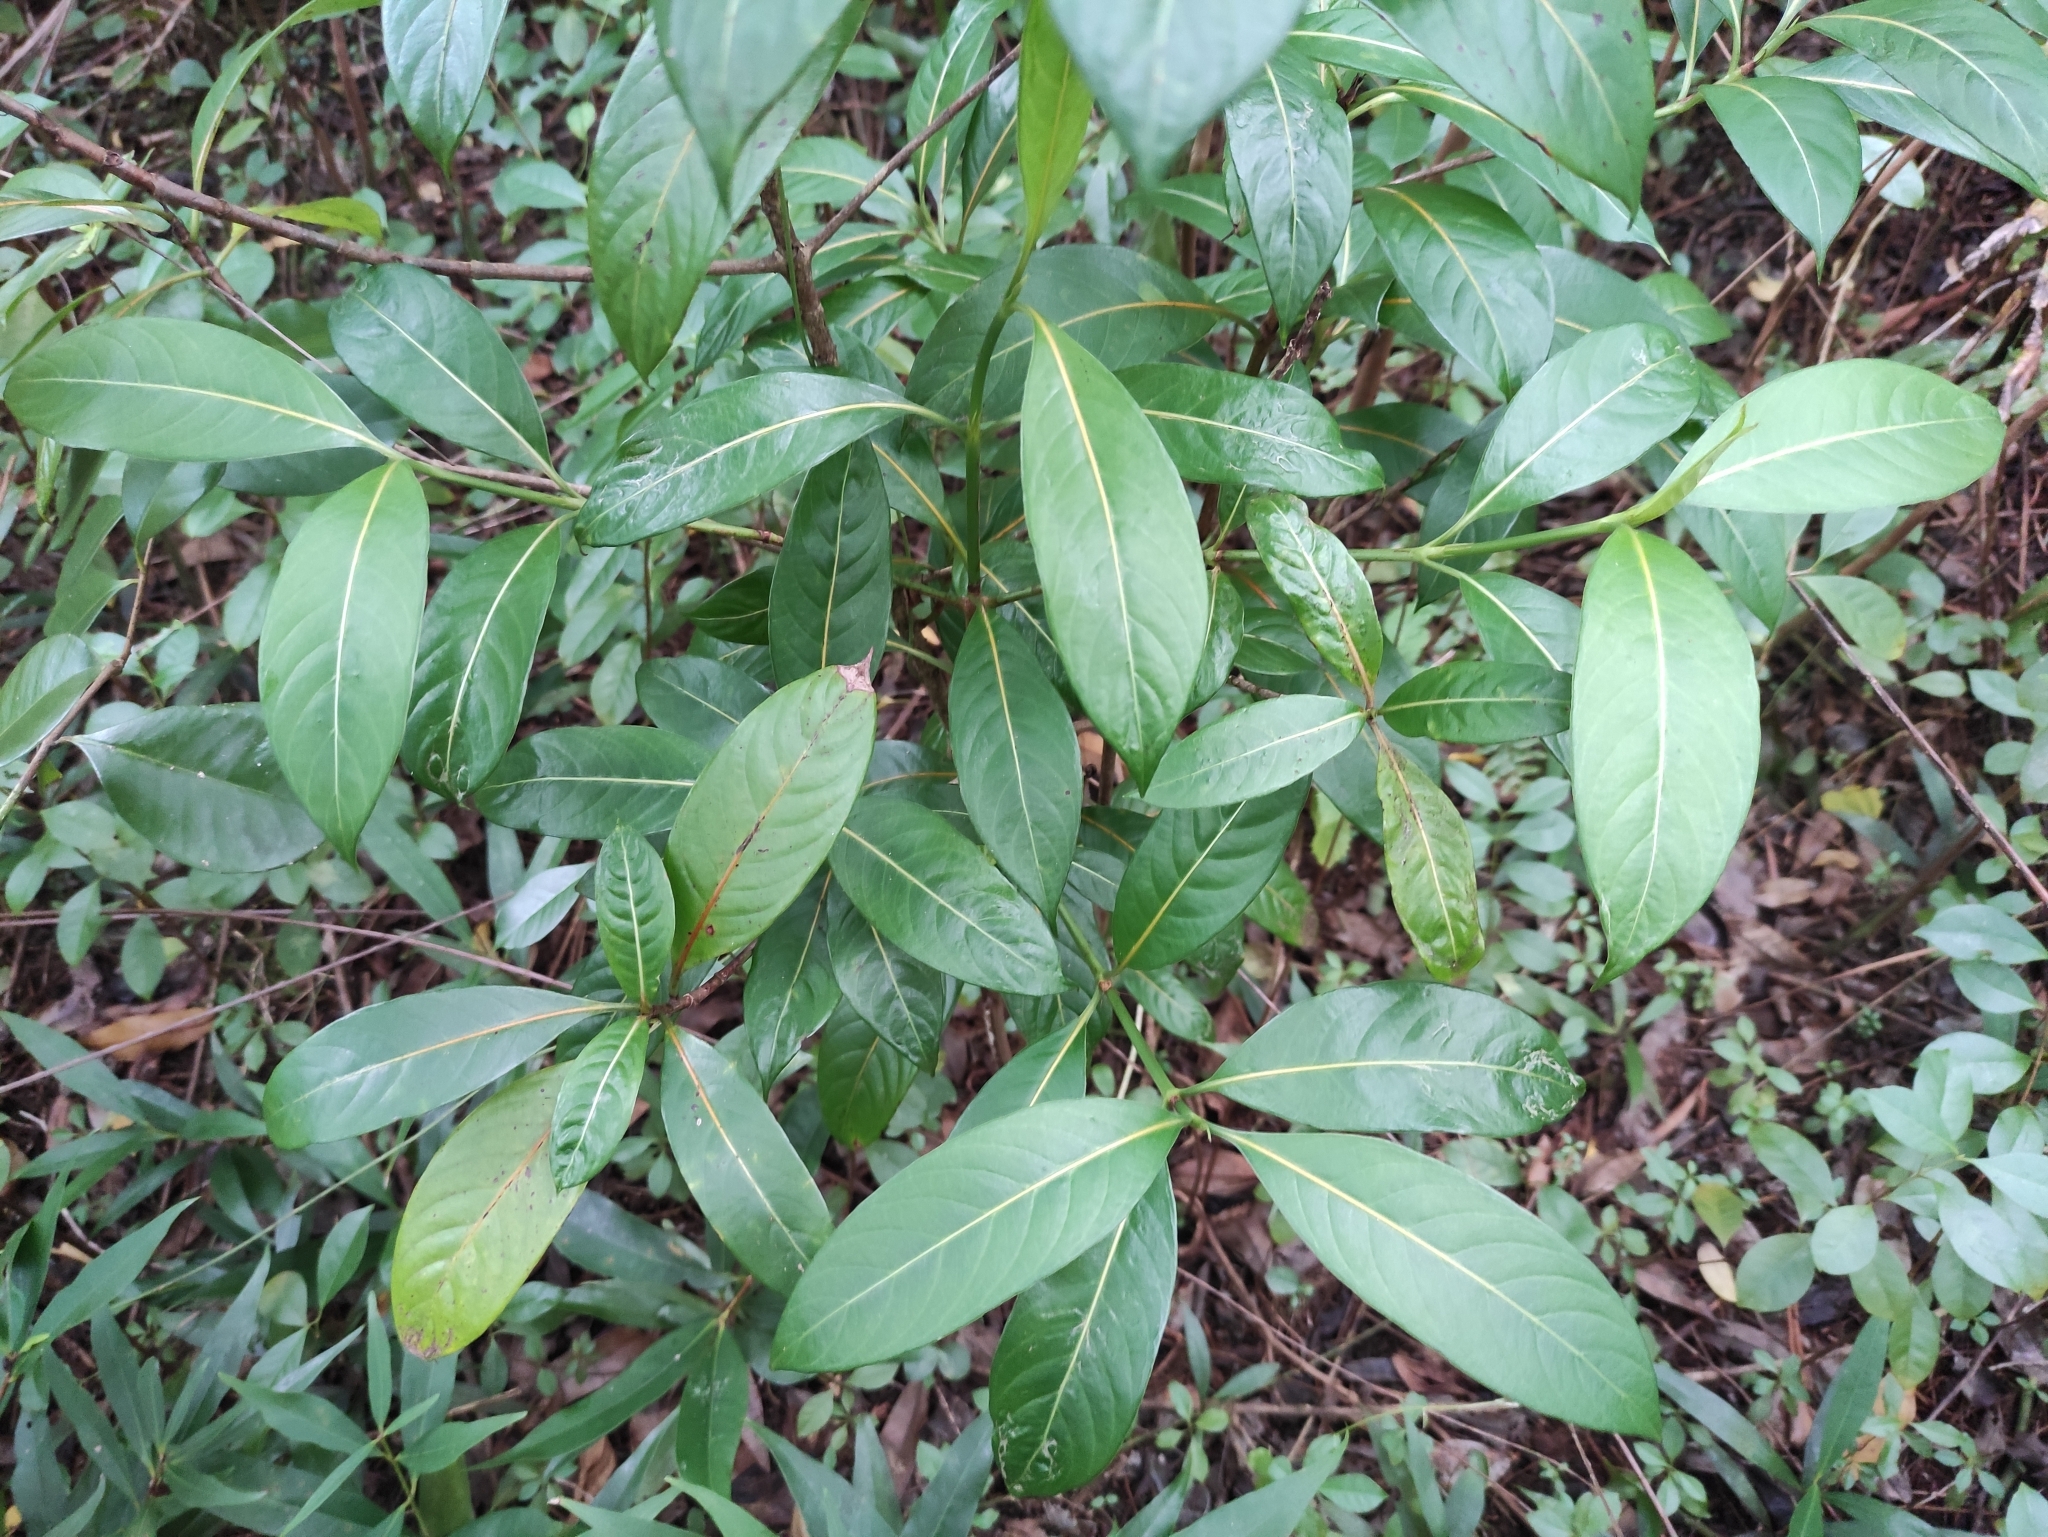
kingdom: Plantae
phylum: Tracheophyta
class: Magnoliopsida
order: Gentianales
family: Rubiaceae
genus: Gaertnera
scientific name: Gaertnera vaginata
